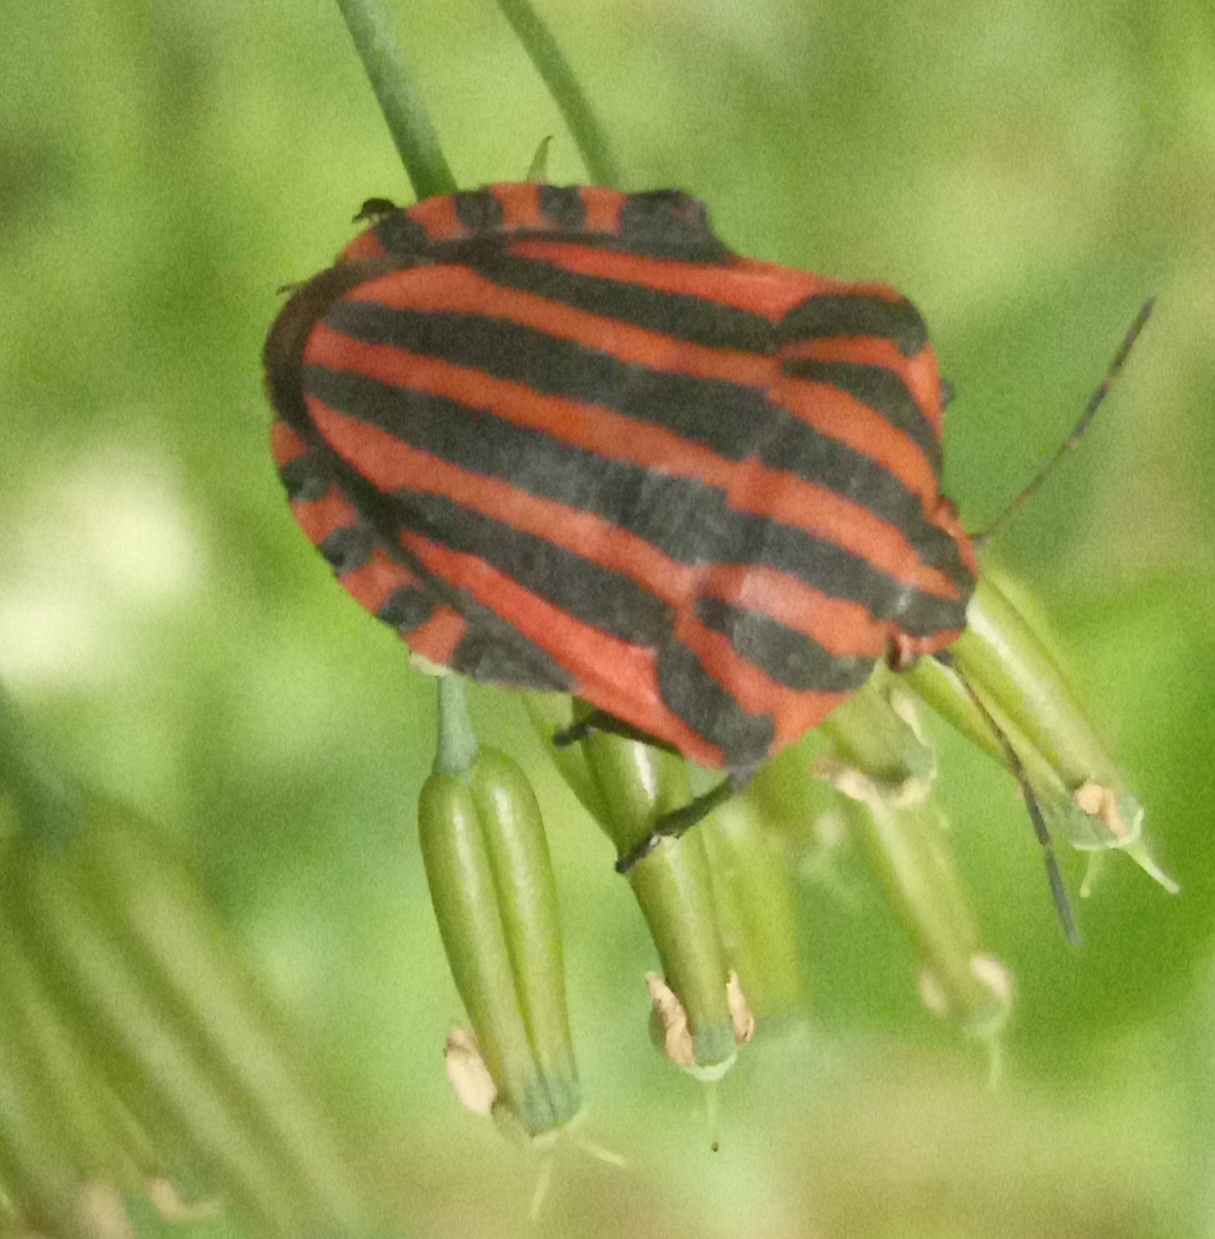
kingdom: Animalia
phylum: Arthropoda
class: Insecta
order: Hemiptera
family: Pentatomidae
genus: Graphosoma
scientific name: Graphosoma italicum
